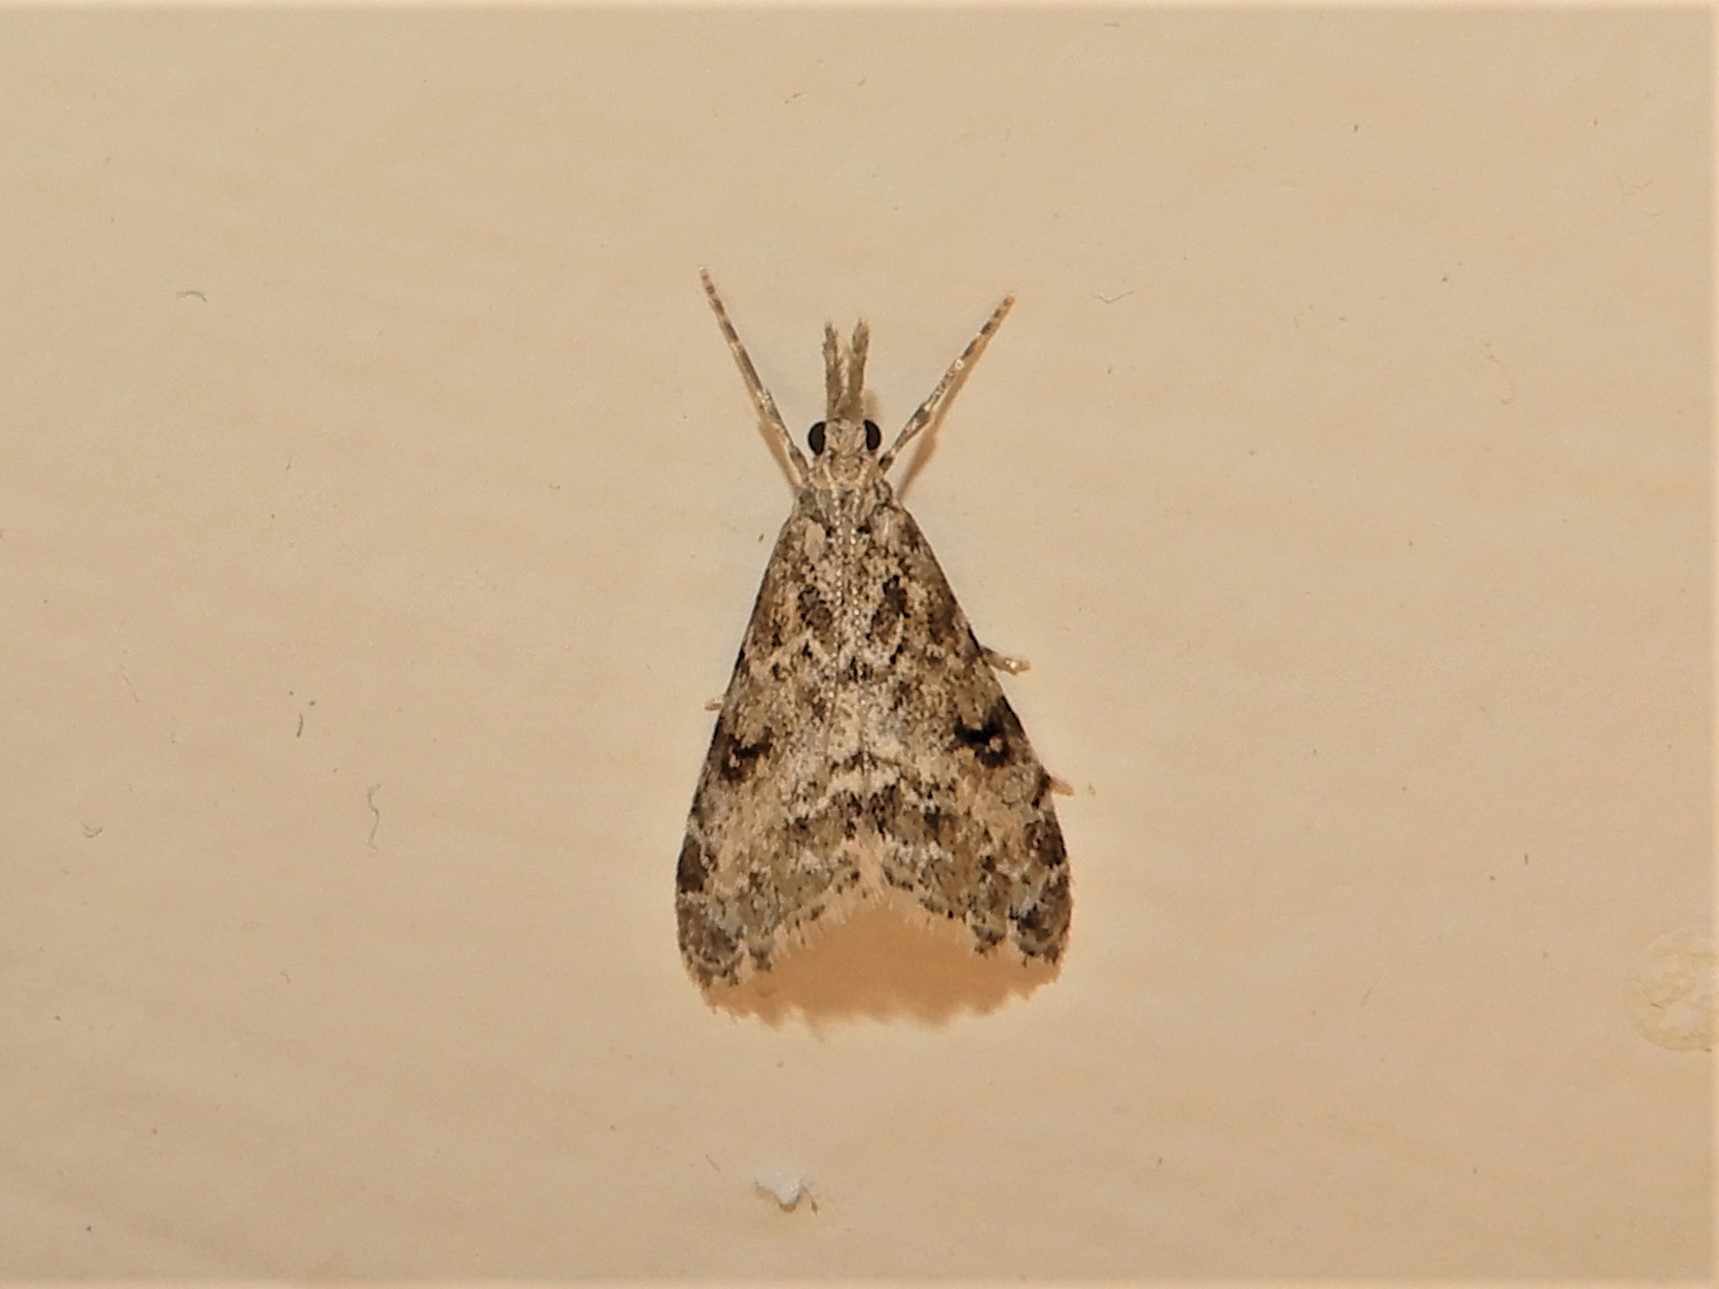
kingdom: Animalia
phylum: Arthropoda
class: Insecta
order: Lepidoptera
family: Crambidae
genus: Glaucocharis
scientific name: Glaucocharis elaina
